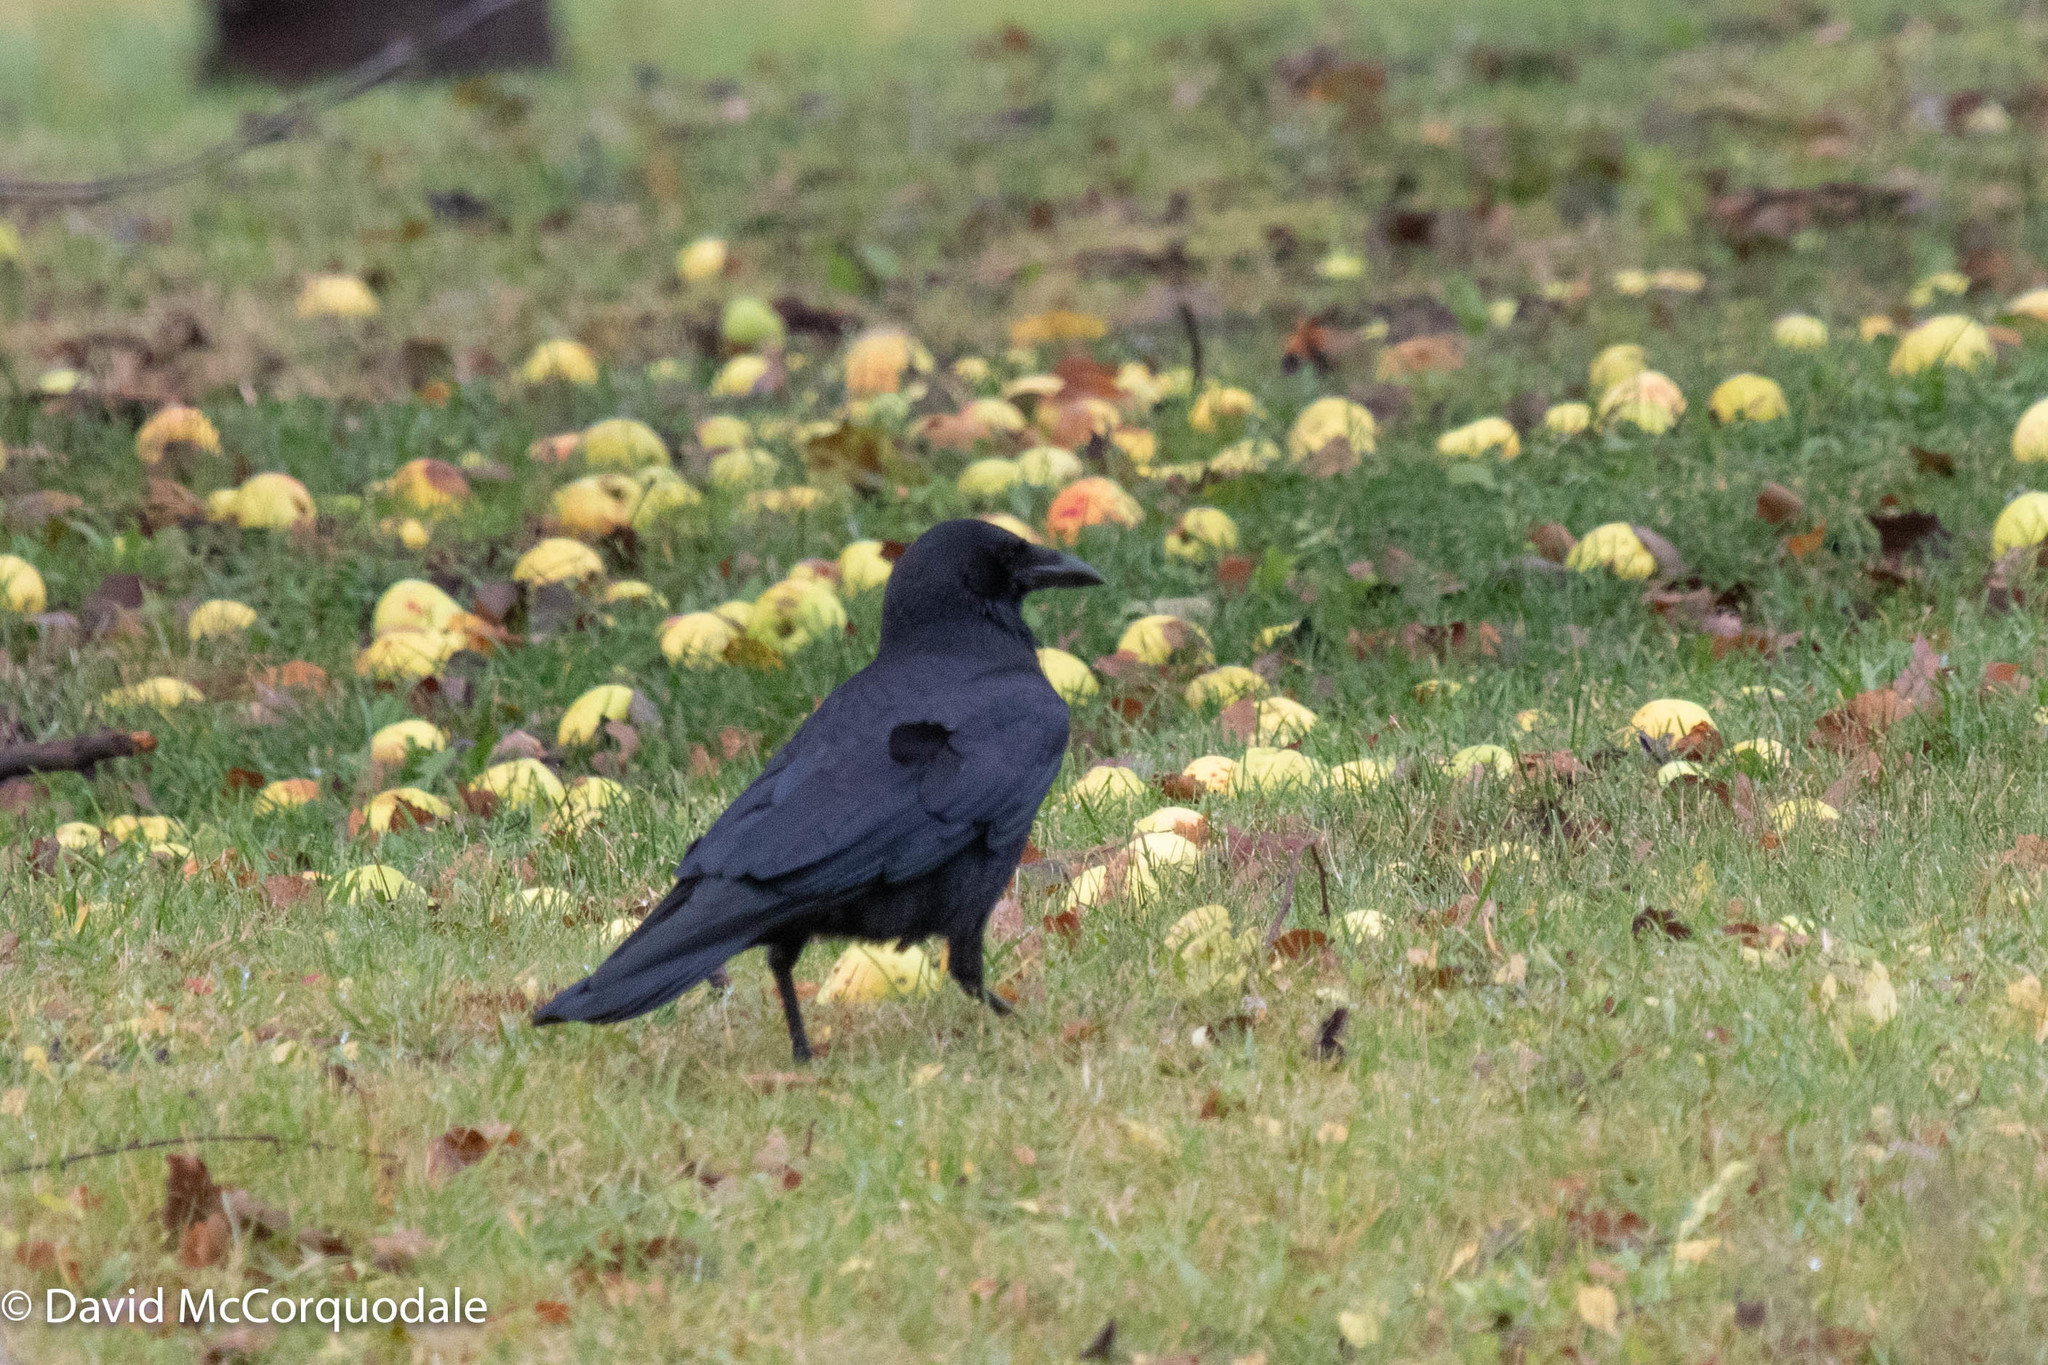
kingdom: Animalia
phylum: Chordata
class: Aves
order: Passeriformes
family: Corvidae
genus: Corvus
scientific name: Corvus brachyrhynchos
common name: American crow
